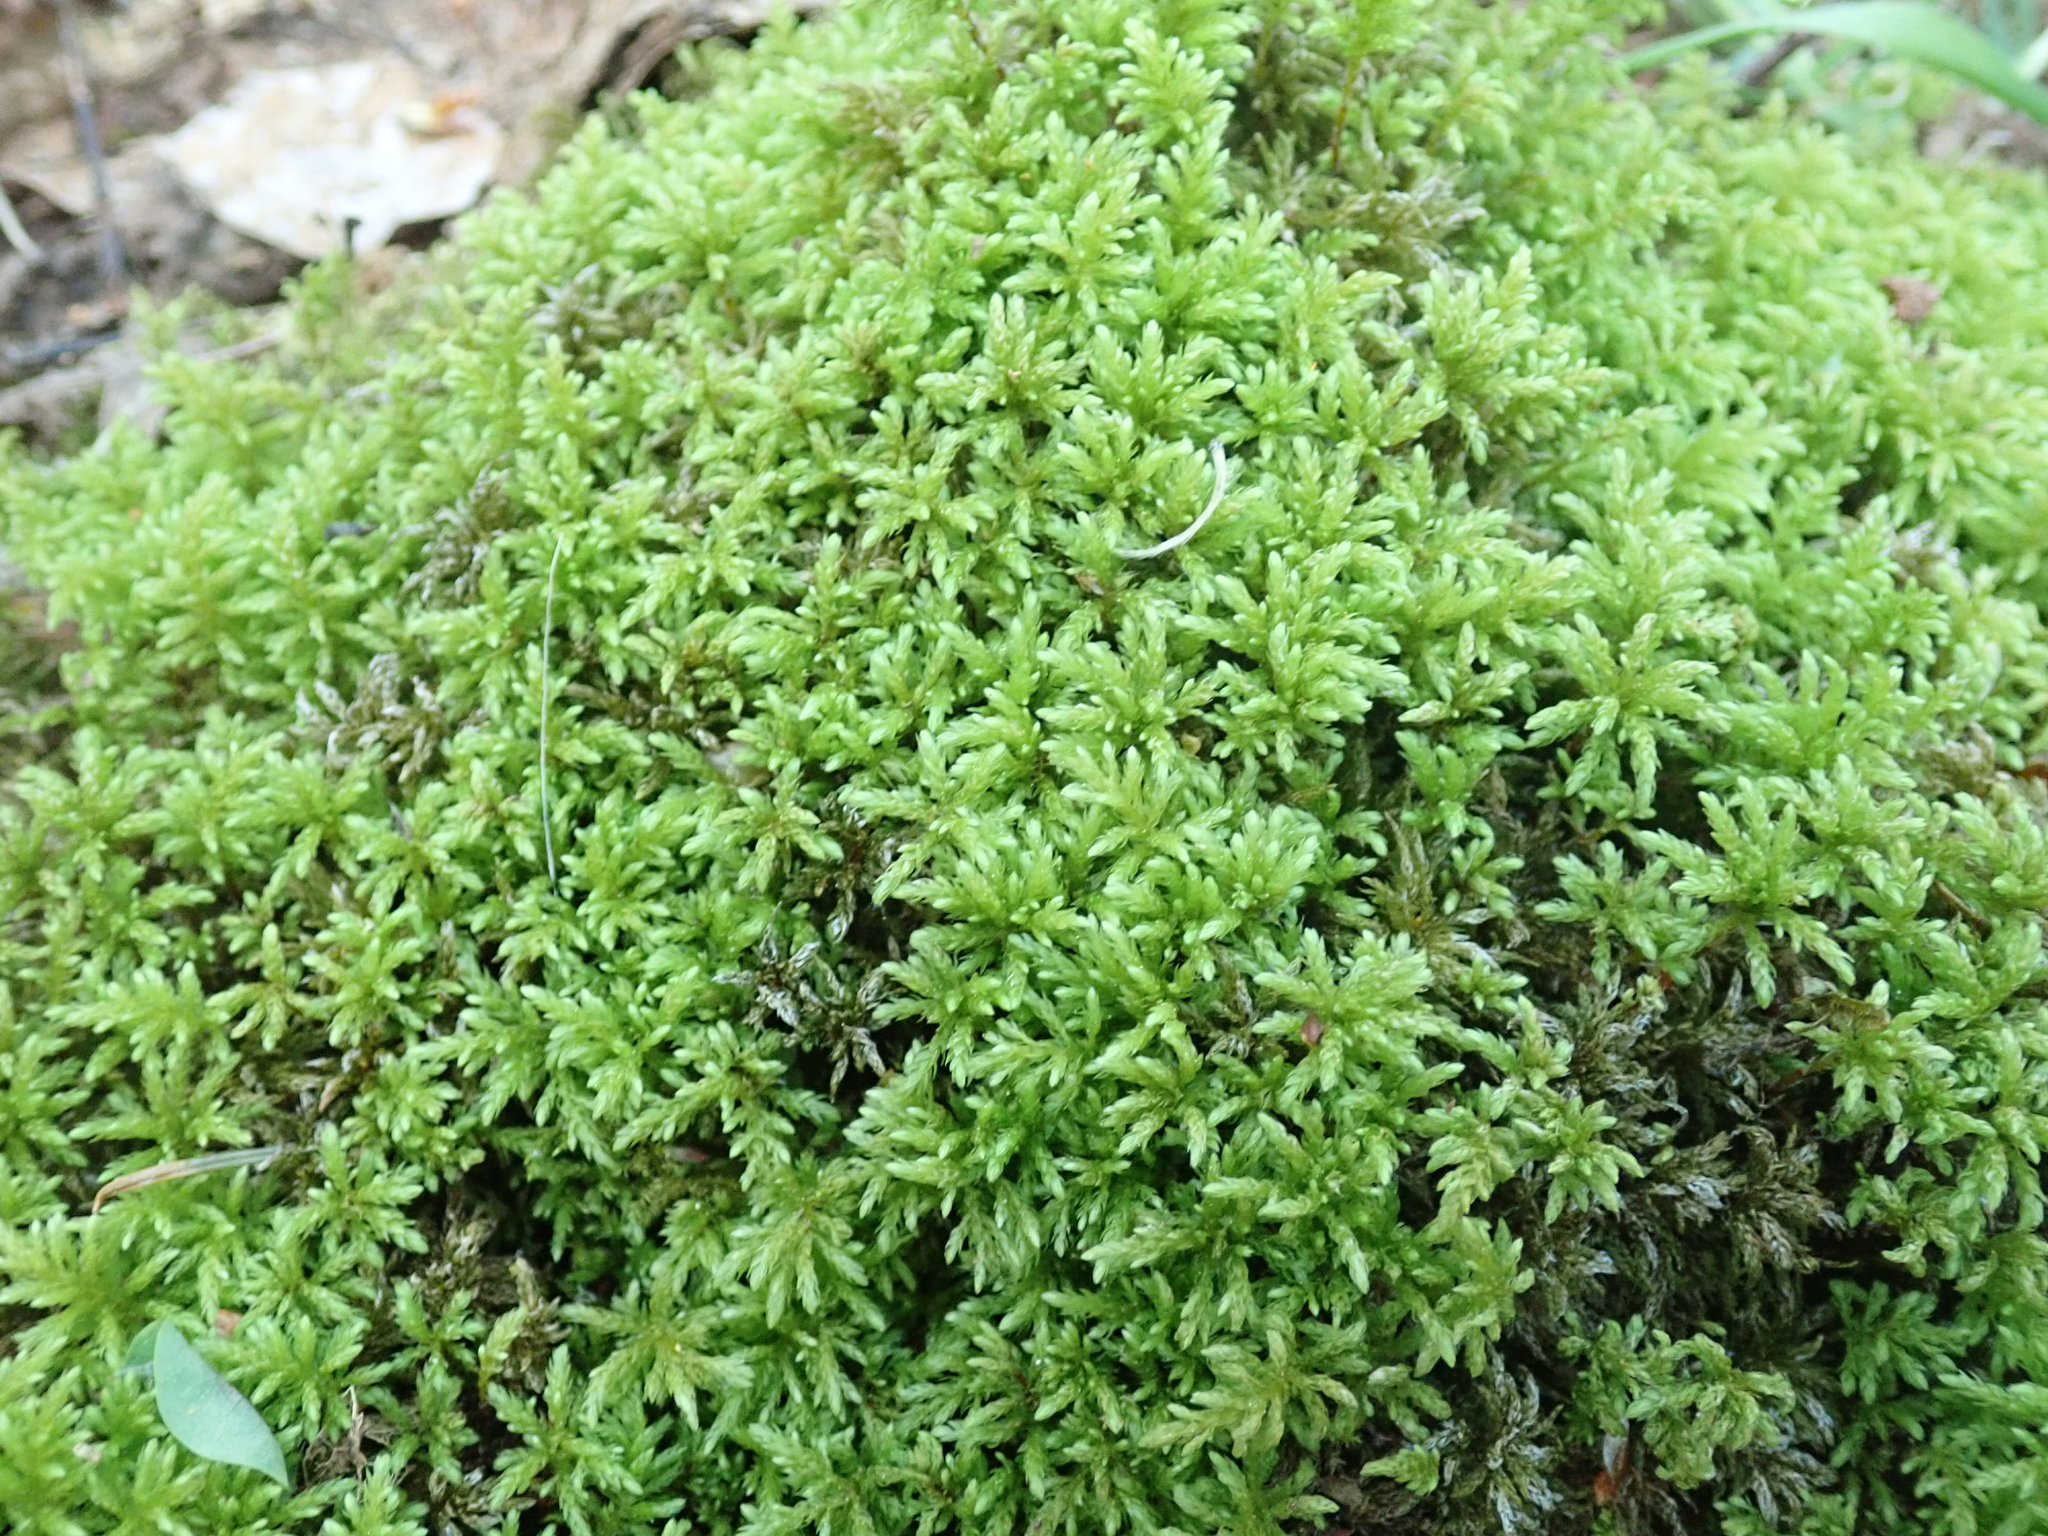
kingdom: Plantae
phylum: Bryophyta
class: Bryopsida
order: Bryales
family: Mniaceae
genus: Leucolepis
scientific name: Leucolepis acanthoneura
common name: Leucolepis umbrella moss
